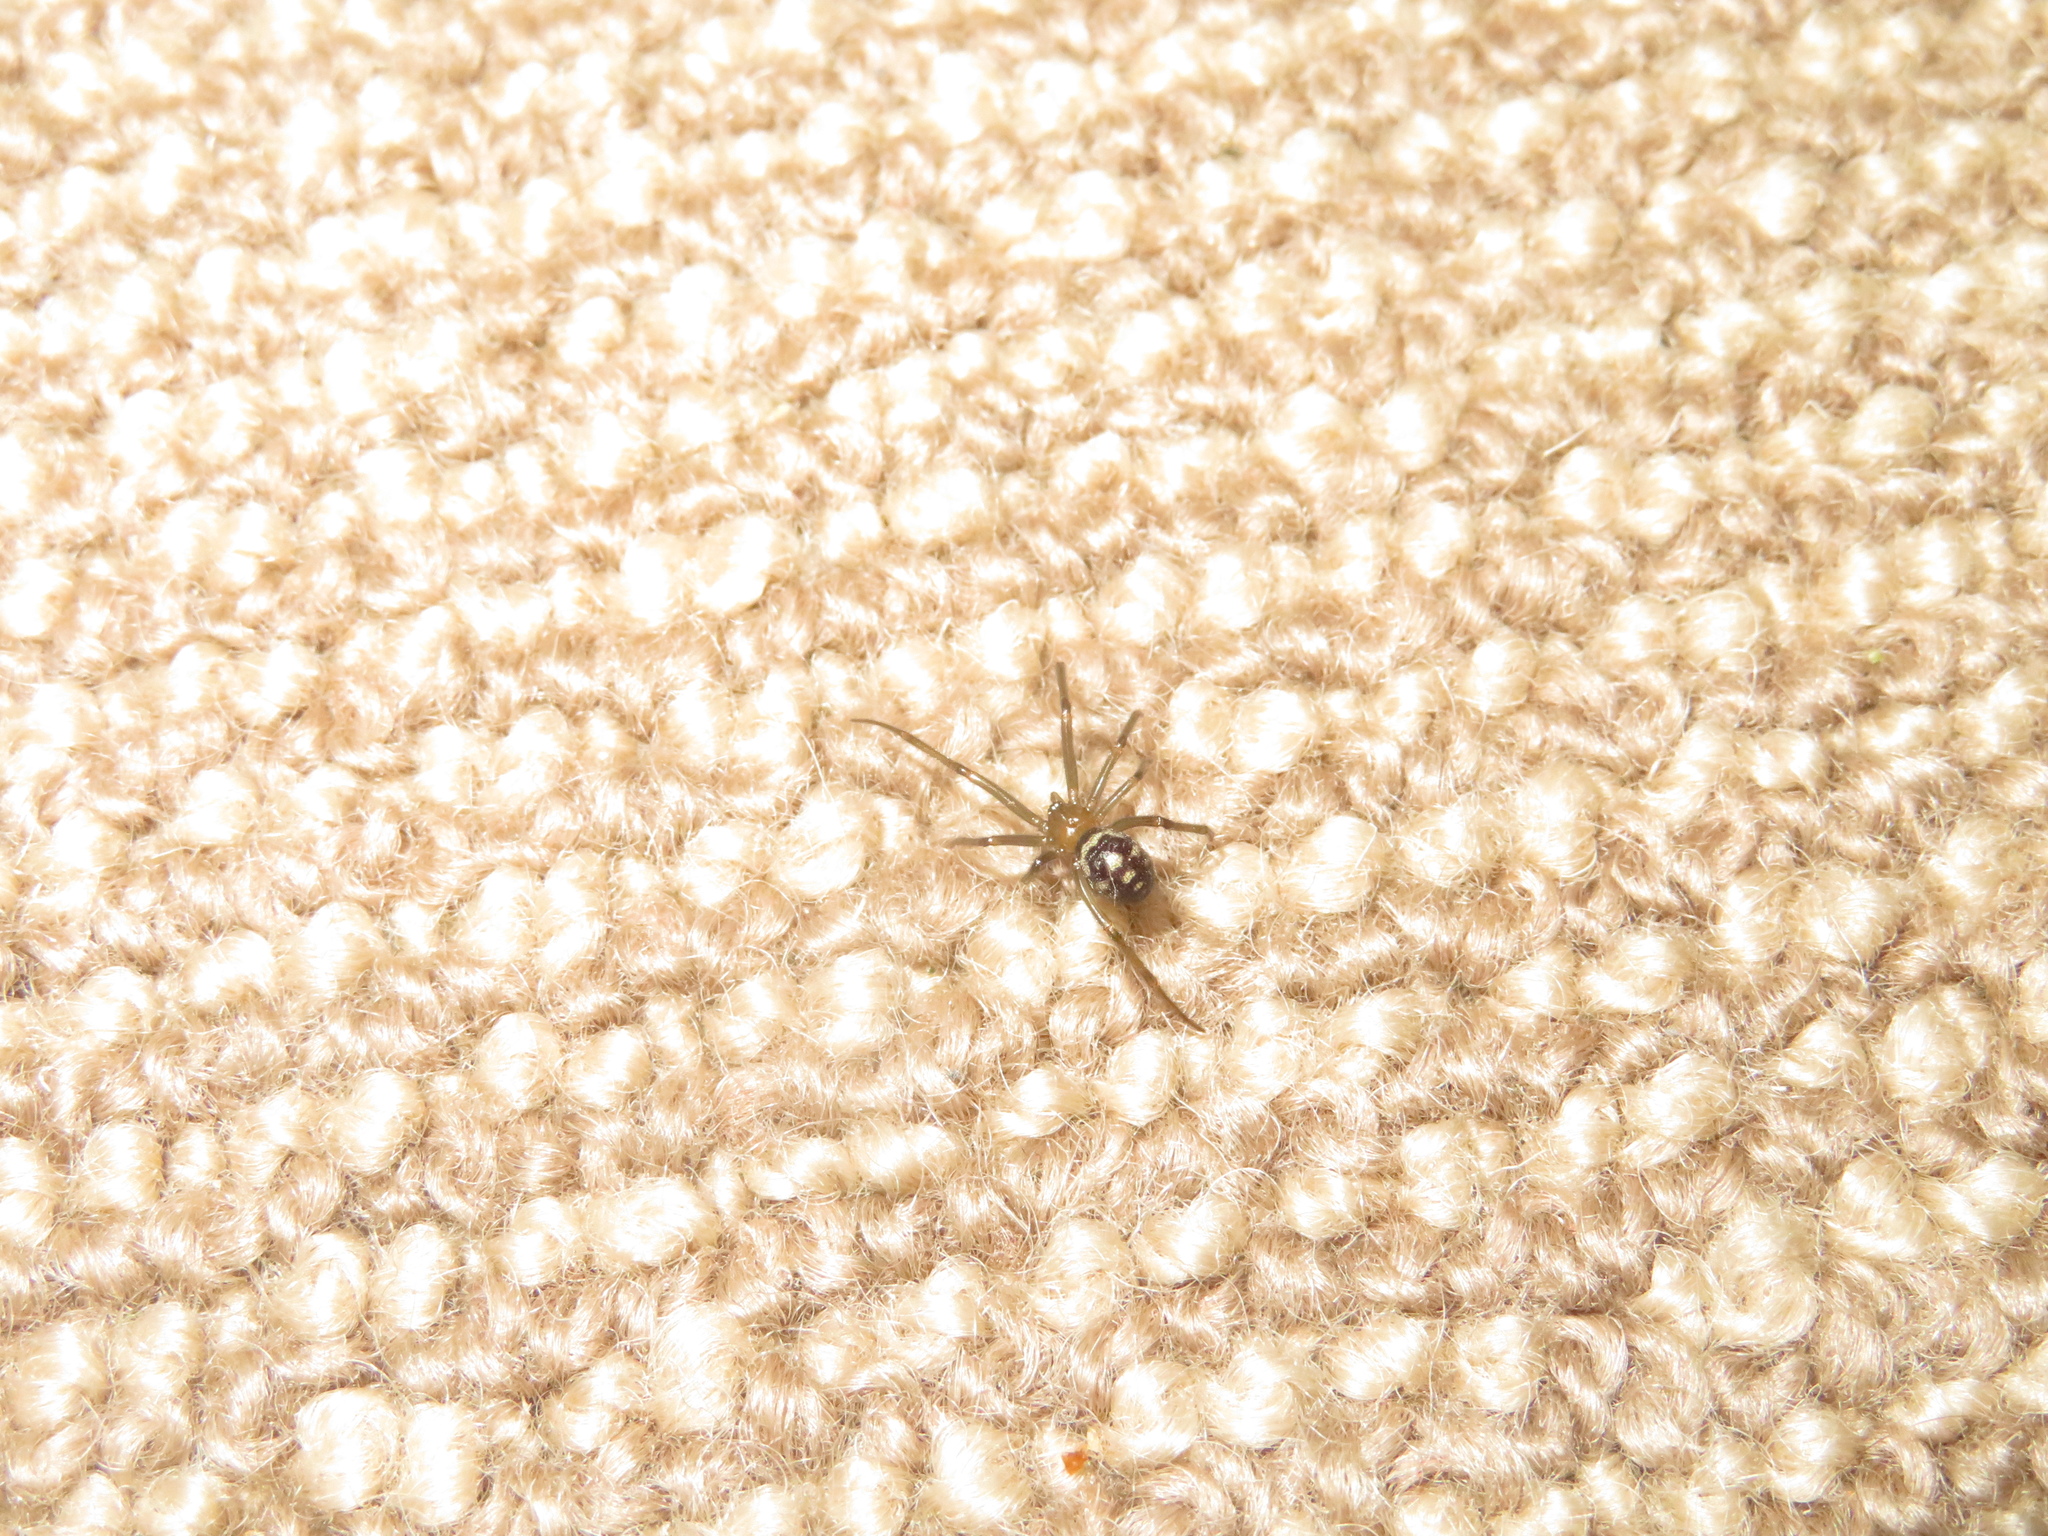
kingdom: Animalia
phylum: Arthropoda
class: Arachnida
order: Araneae
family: Theridiidae
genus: Steatoda
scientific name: Steatoda grossa
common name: False black widow
